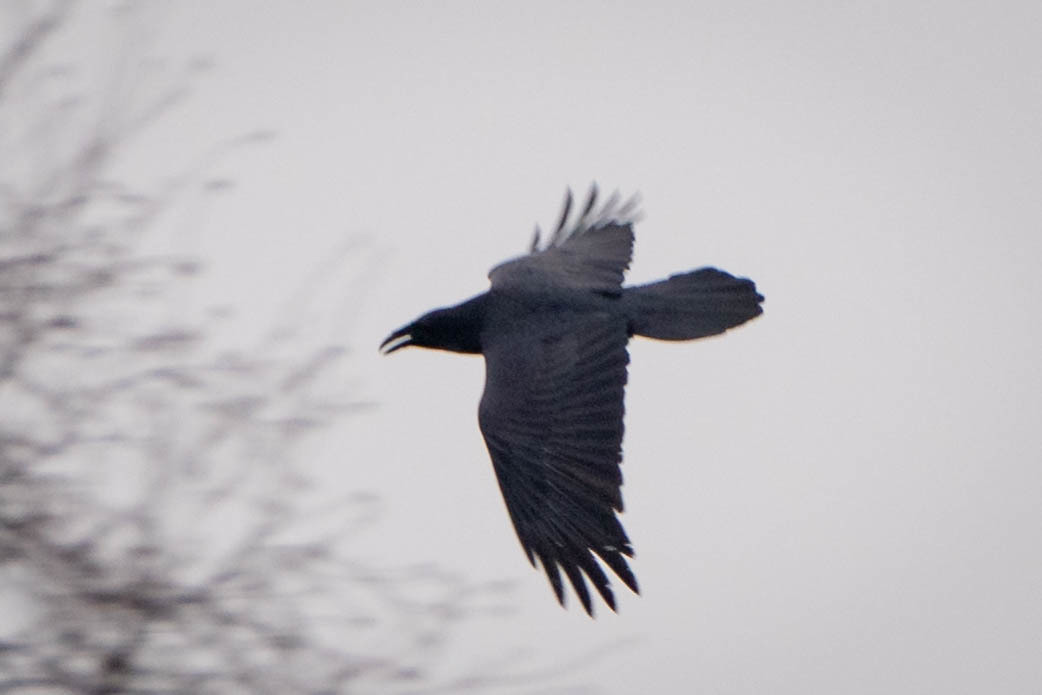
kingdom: Animalia
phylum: Chordata
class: Aves
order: Passeriformes
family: Corvidae
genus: Corvus
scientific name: Corvus corax
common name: Common raven
